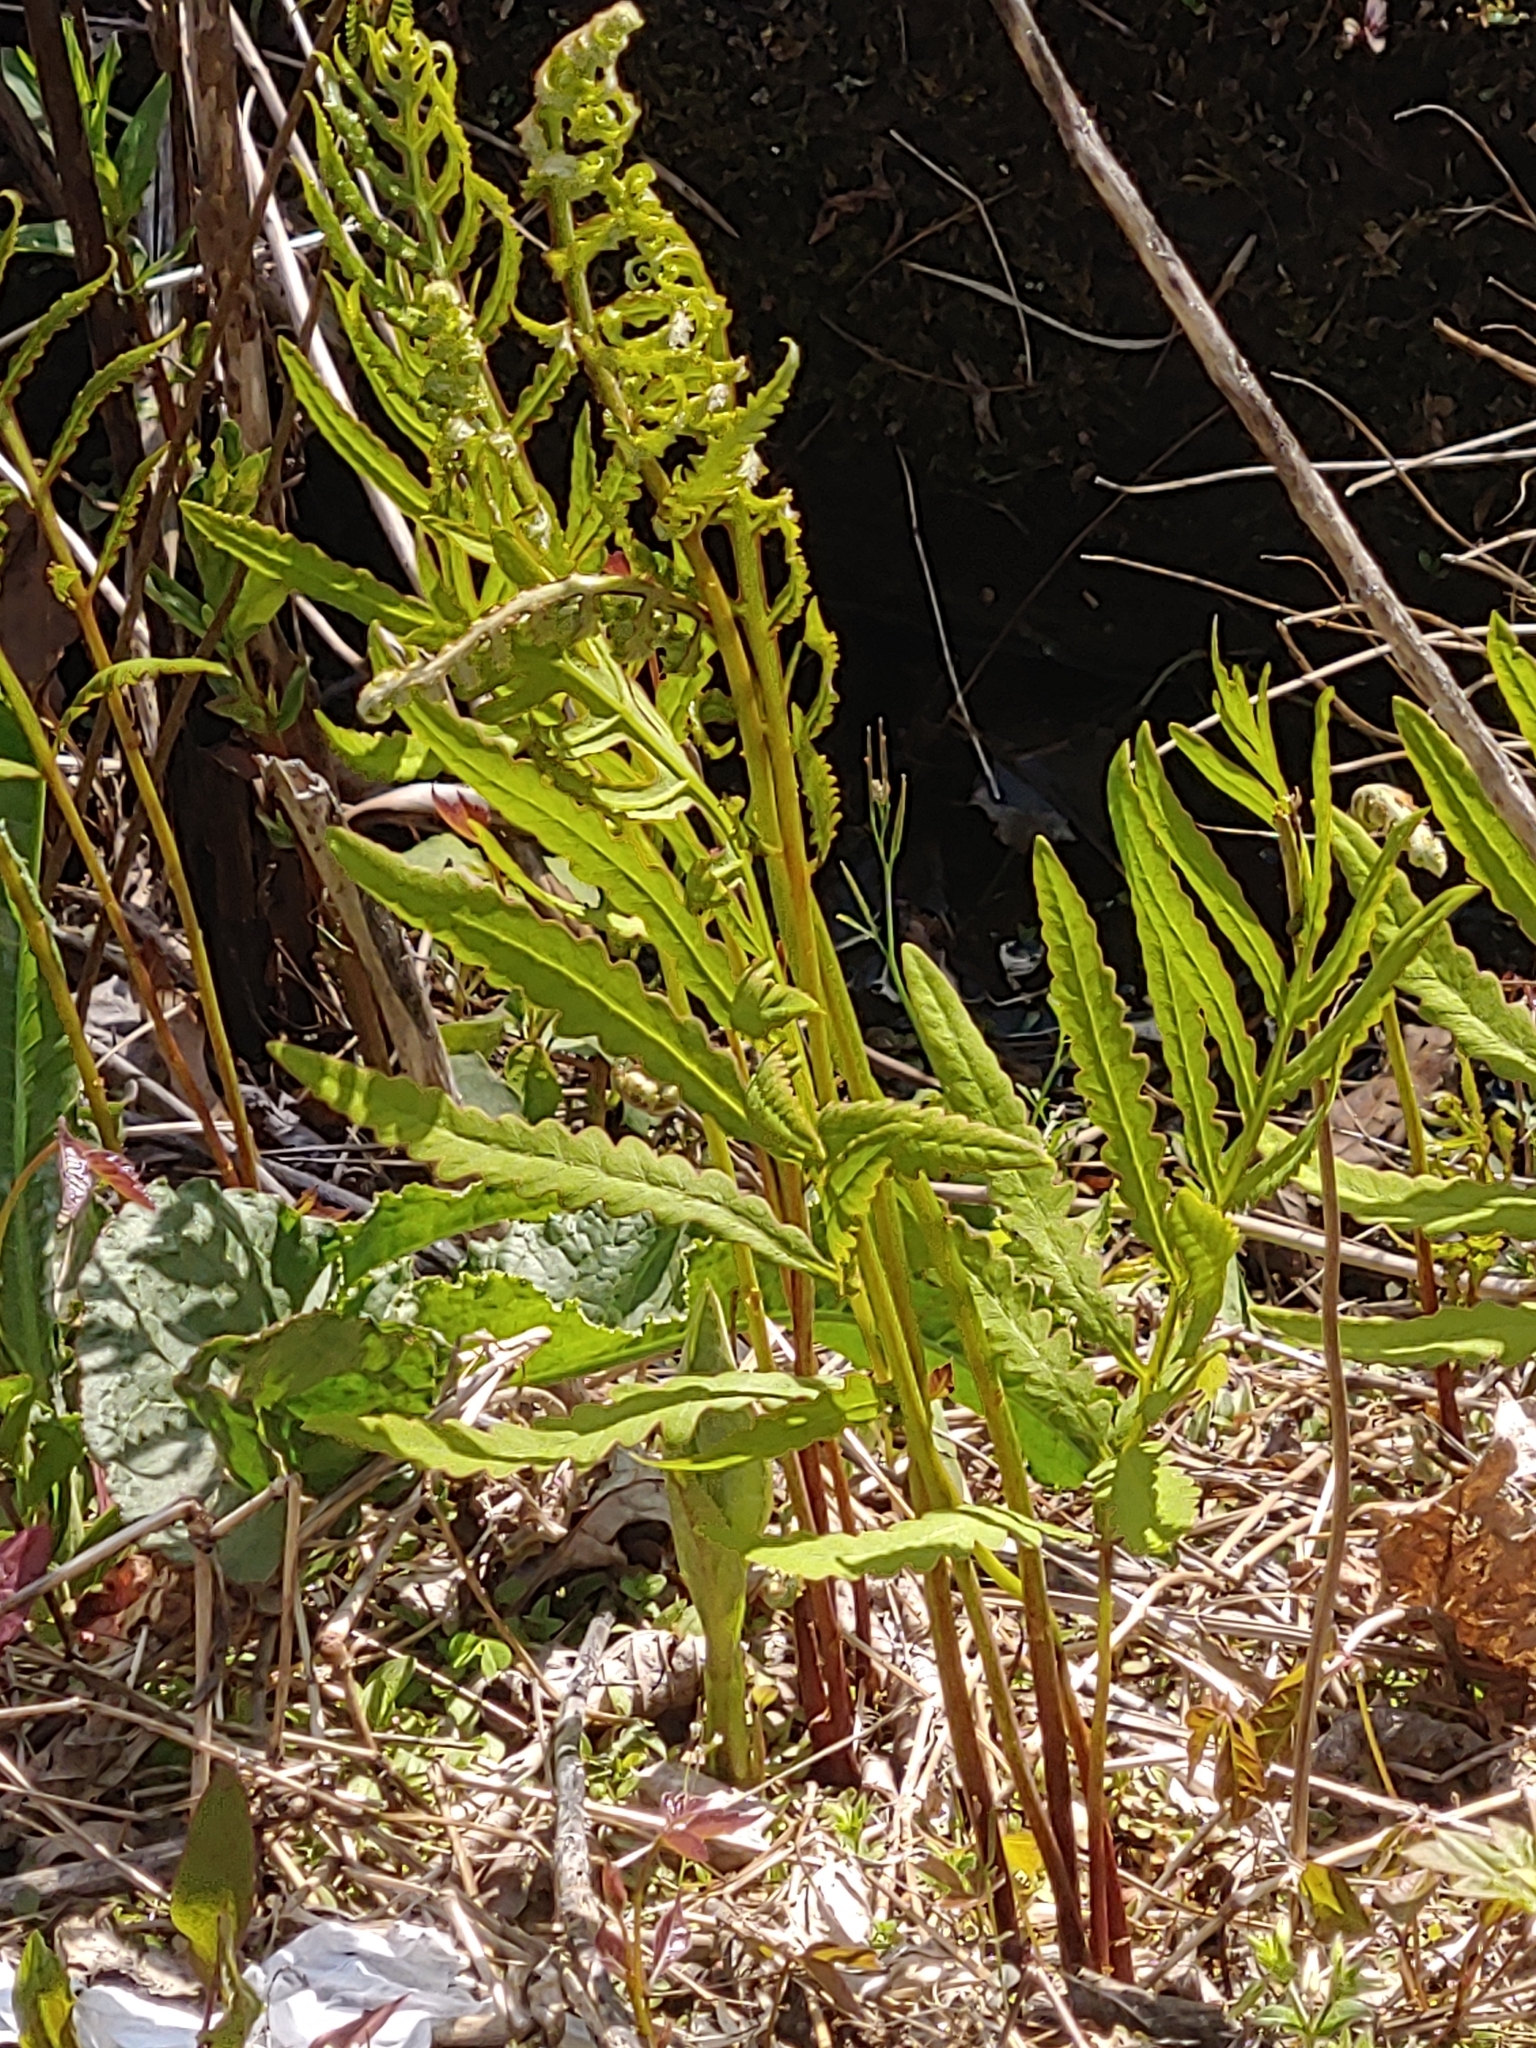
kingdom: Plantae
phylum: Tracheophyta
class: Polypodiopsida
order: Polypodiales
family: Onocleaceae
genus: Onoclea
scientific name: Onoclea sensibilis
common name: Sensitive fern
